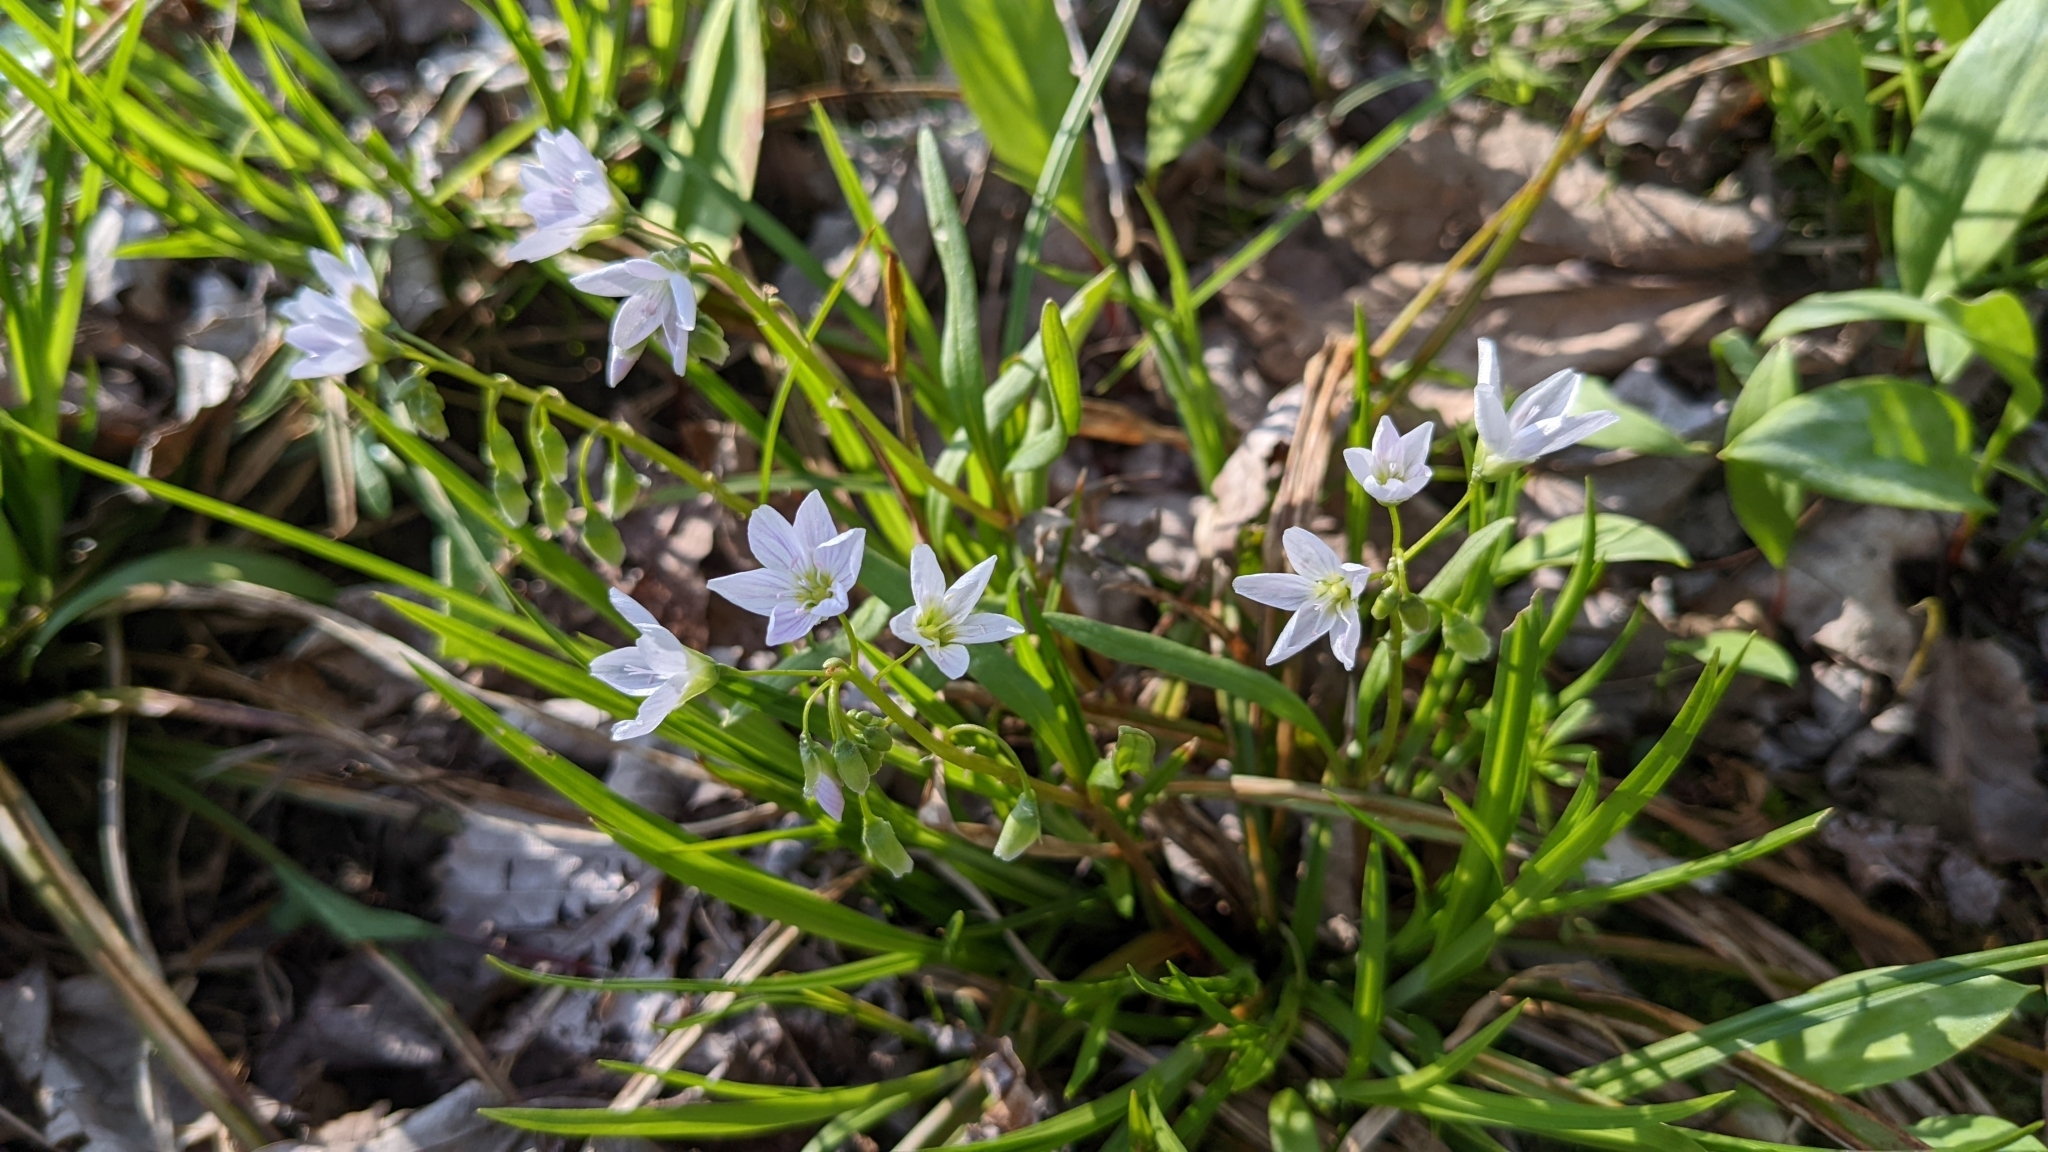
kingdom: Plantae
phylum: Tracheophyta
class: Magnoliopsida
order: Caryophyllales
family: Montiaceae
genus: Claytonia
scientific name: Claytonia virginica
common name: Virginia springbeauty
